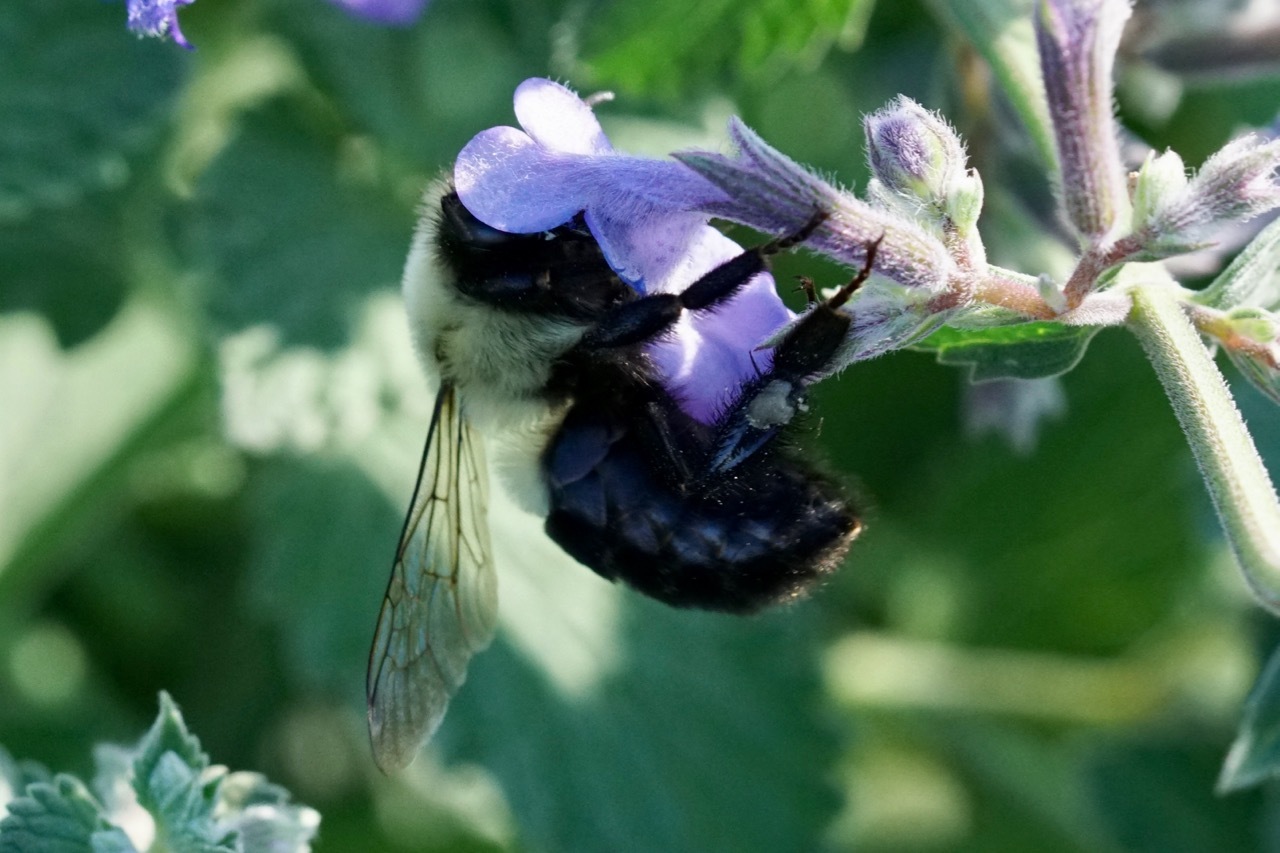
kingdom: Animalia
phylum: Arthropoda
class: Insecta
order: Hymenoptera
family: Apidae
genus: Bombus
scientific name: Bombus impatiens
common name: Common eastern bumble bee
